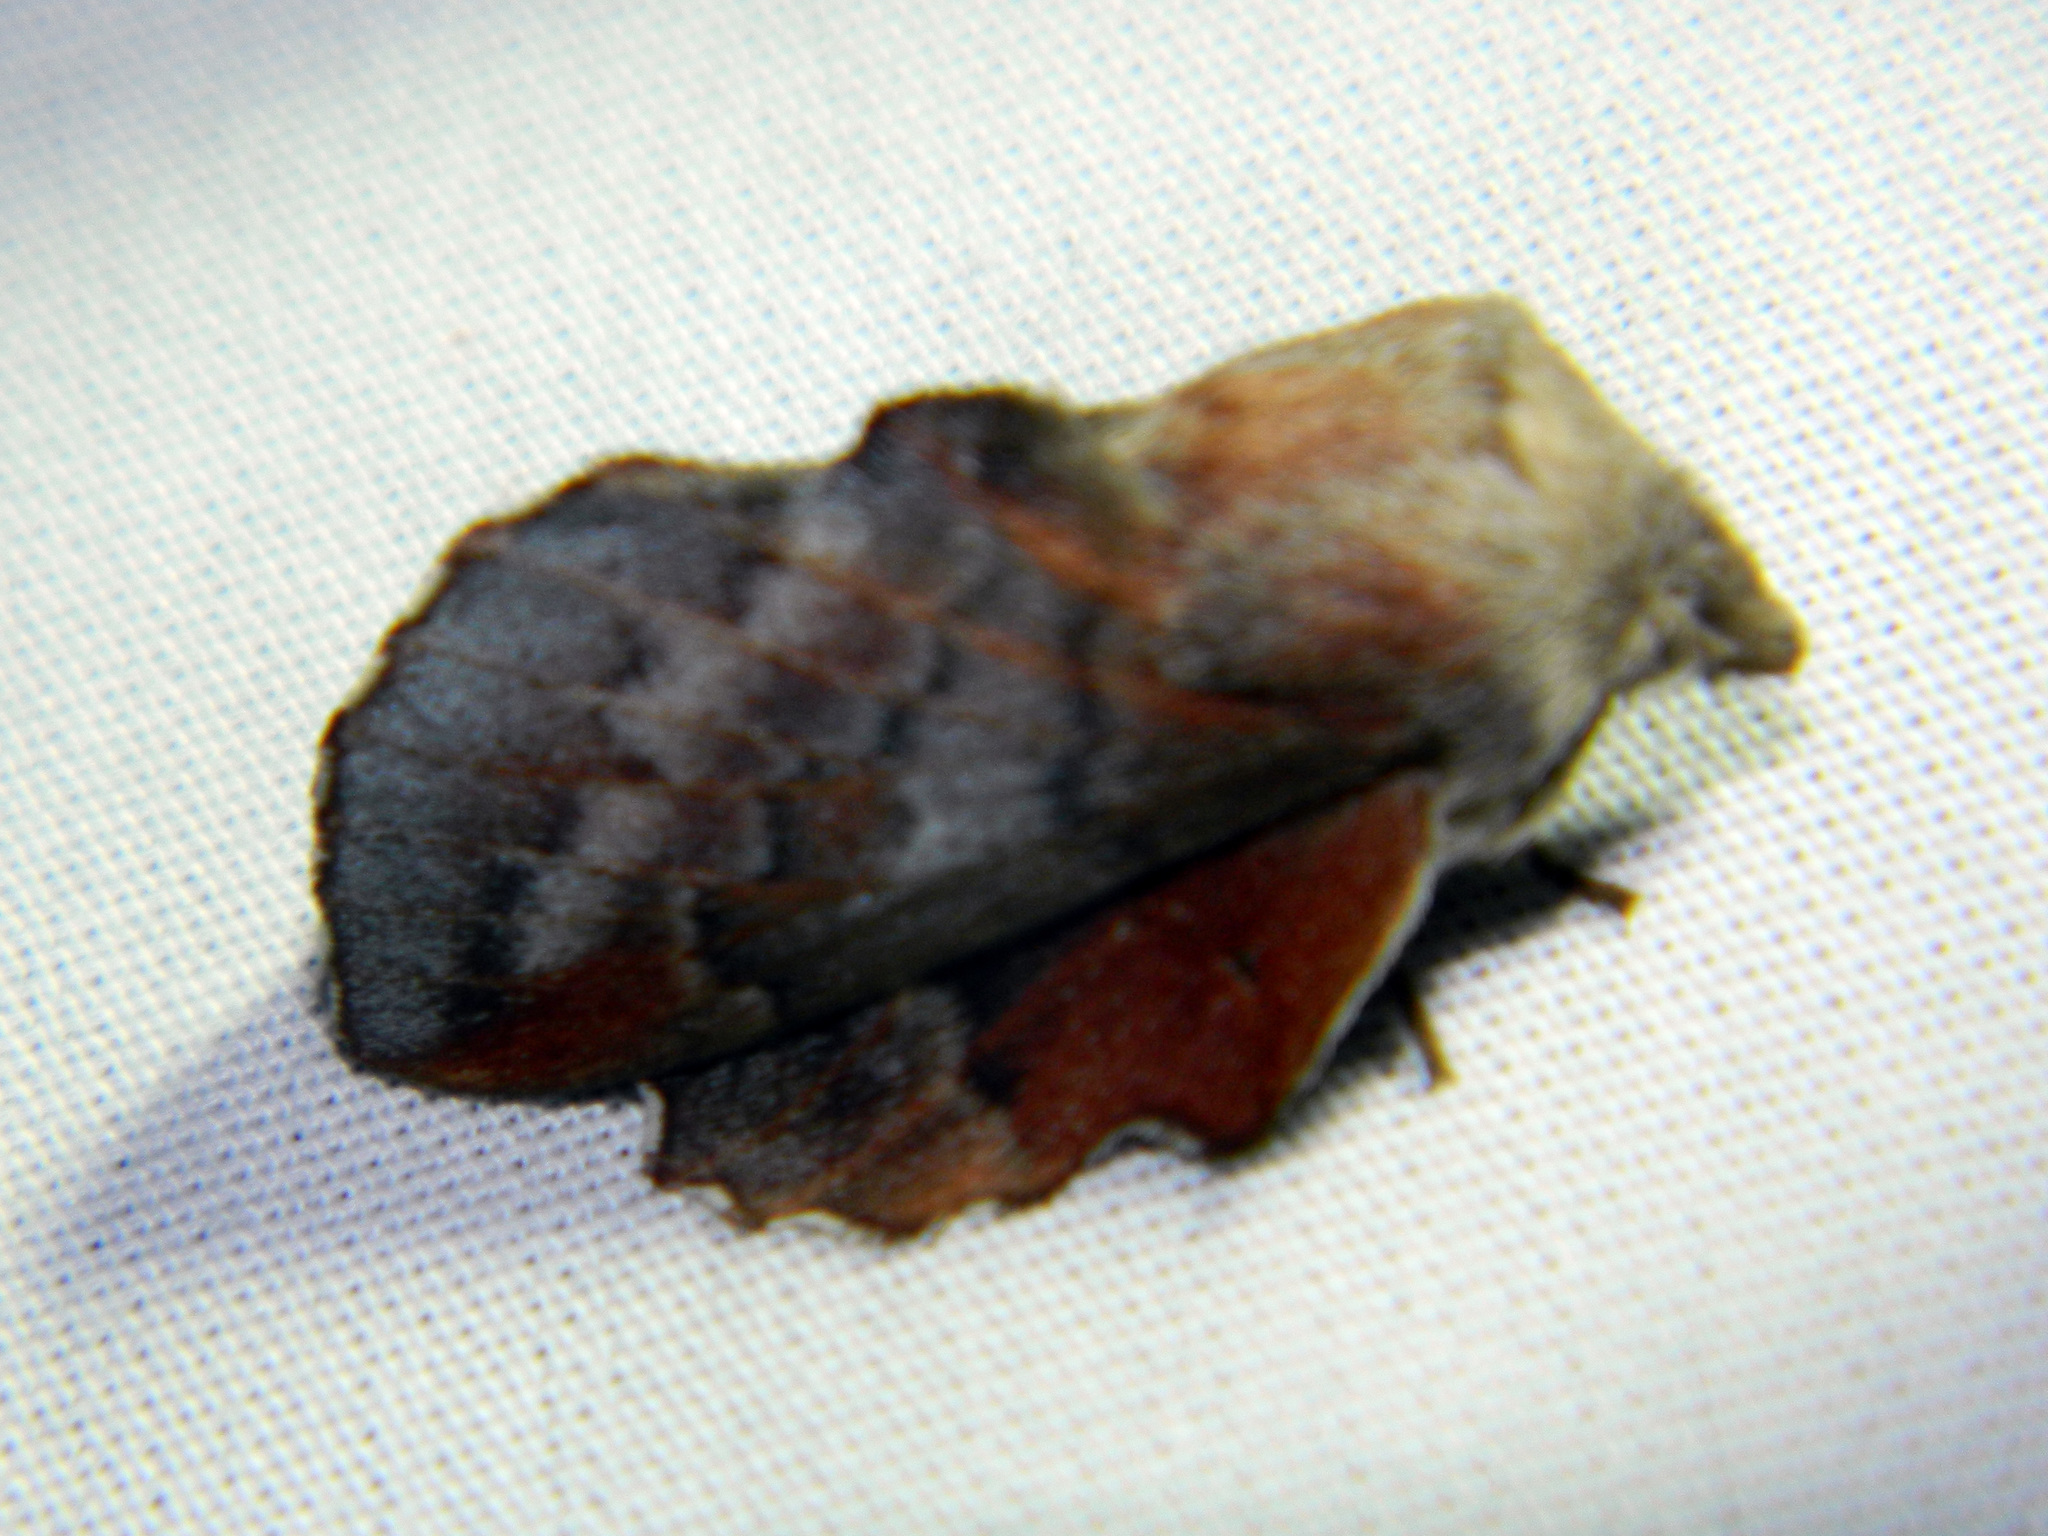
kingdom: Animalia
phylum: Arthropoda
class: Insecta
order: Lepidoptera
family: Lasiocampidae
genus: Phyllodesma
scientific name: Phyllodesma americana
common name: American lappet moth
